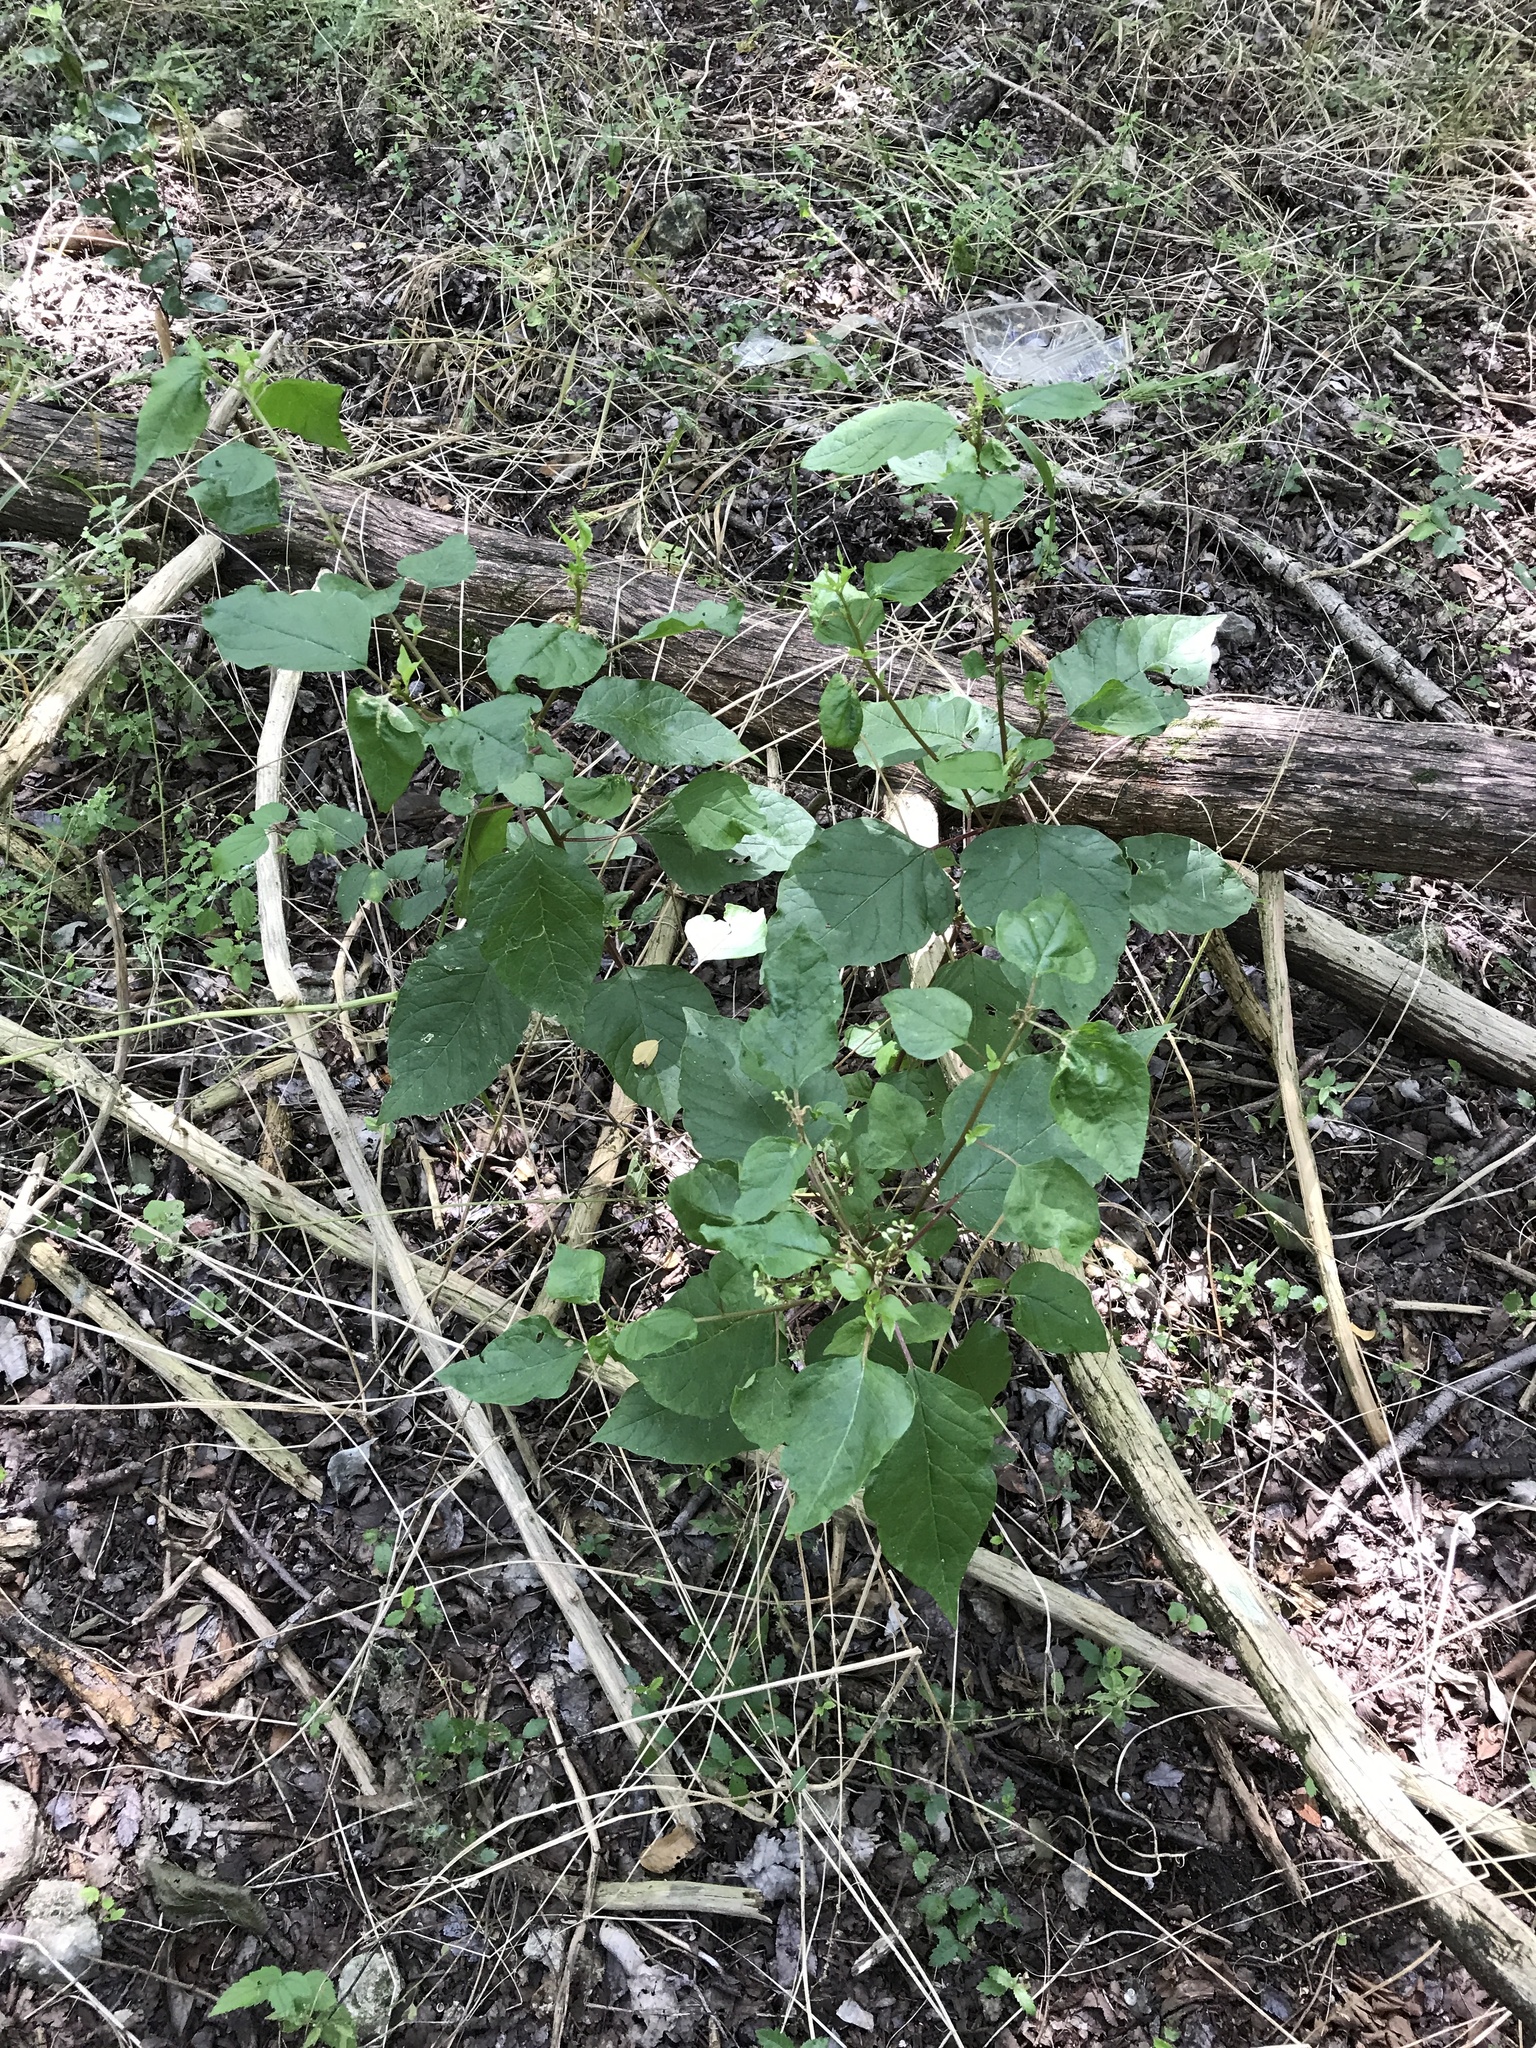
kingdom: Plantae
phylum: Tracheophyta
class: Magnoliopsida
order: Caryophyllales
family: Phytolaccaceae
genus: Rivina
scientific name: Rivina humilis
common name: Rougeplant
